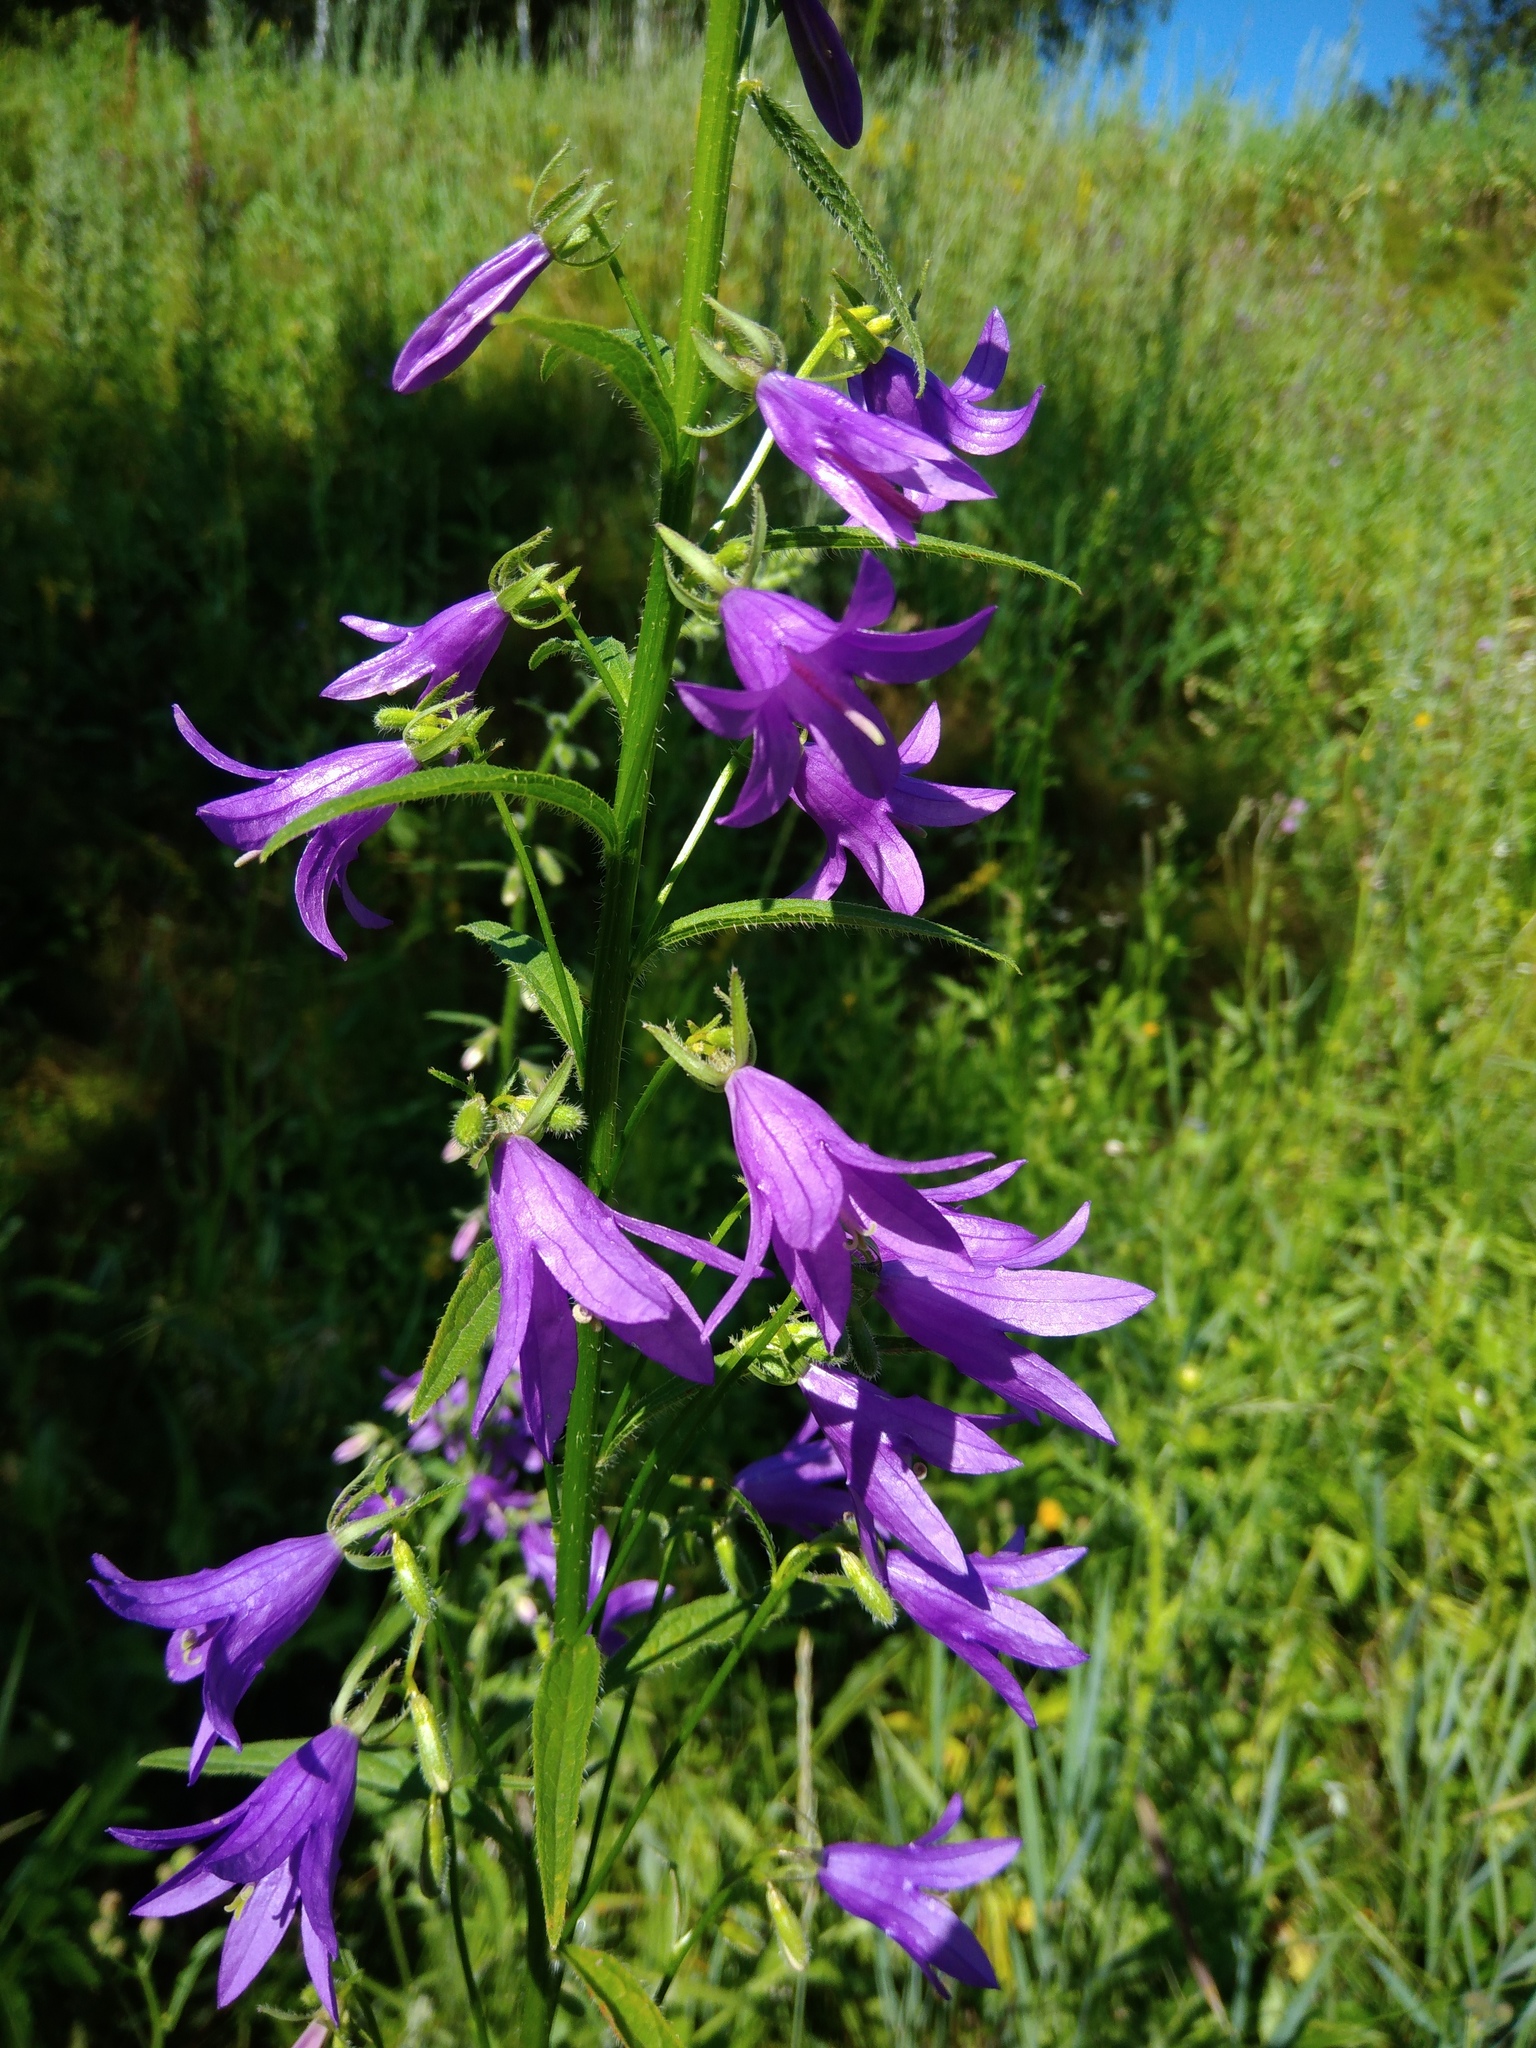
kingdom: Plantae
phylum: Tracheophyta
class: Magnoliopsida
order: Asterales
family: Campanulaceae
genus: Campanula
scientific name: Campanula rapunculoides
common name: Creeping bellflower
